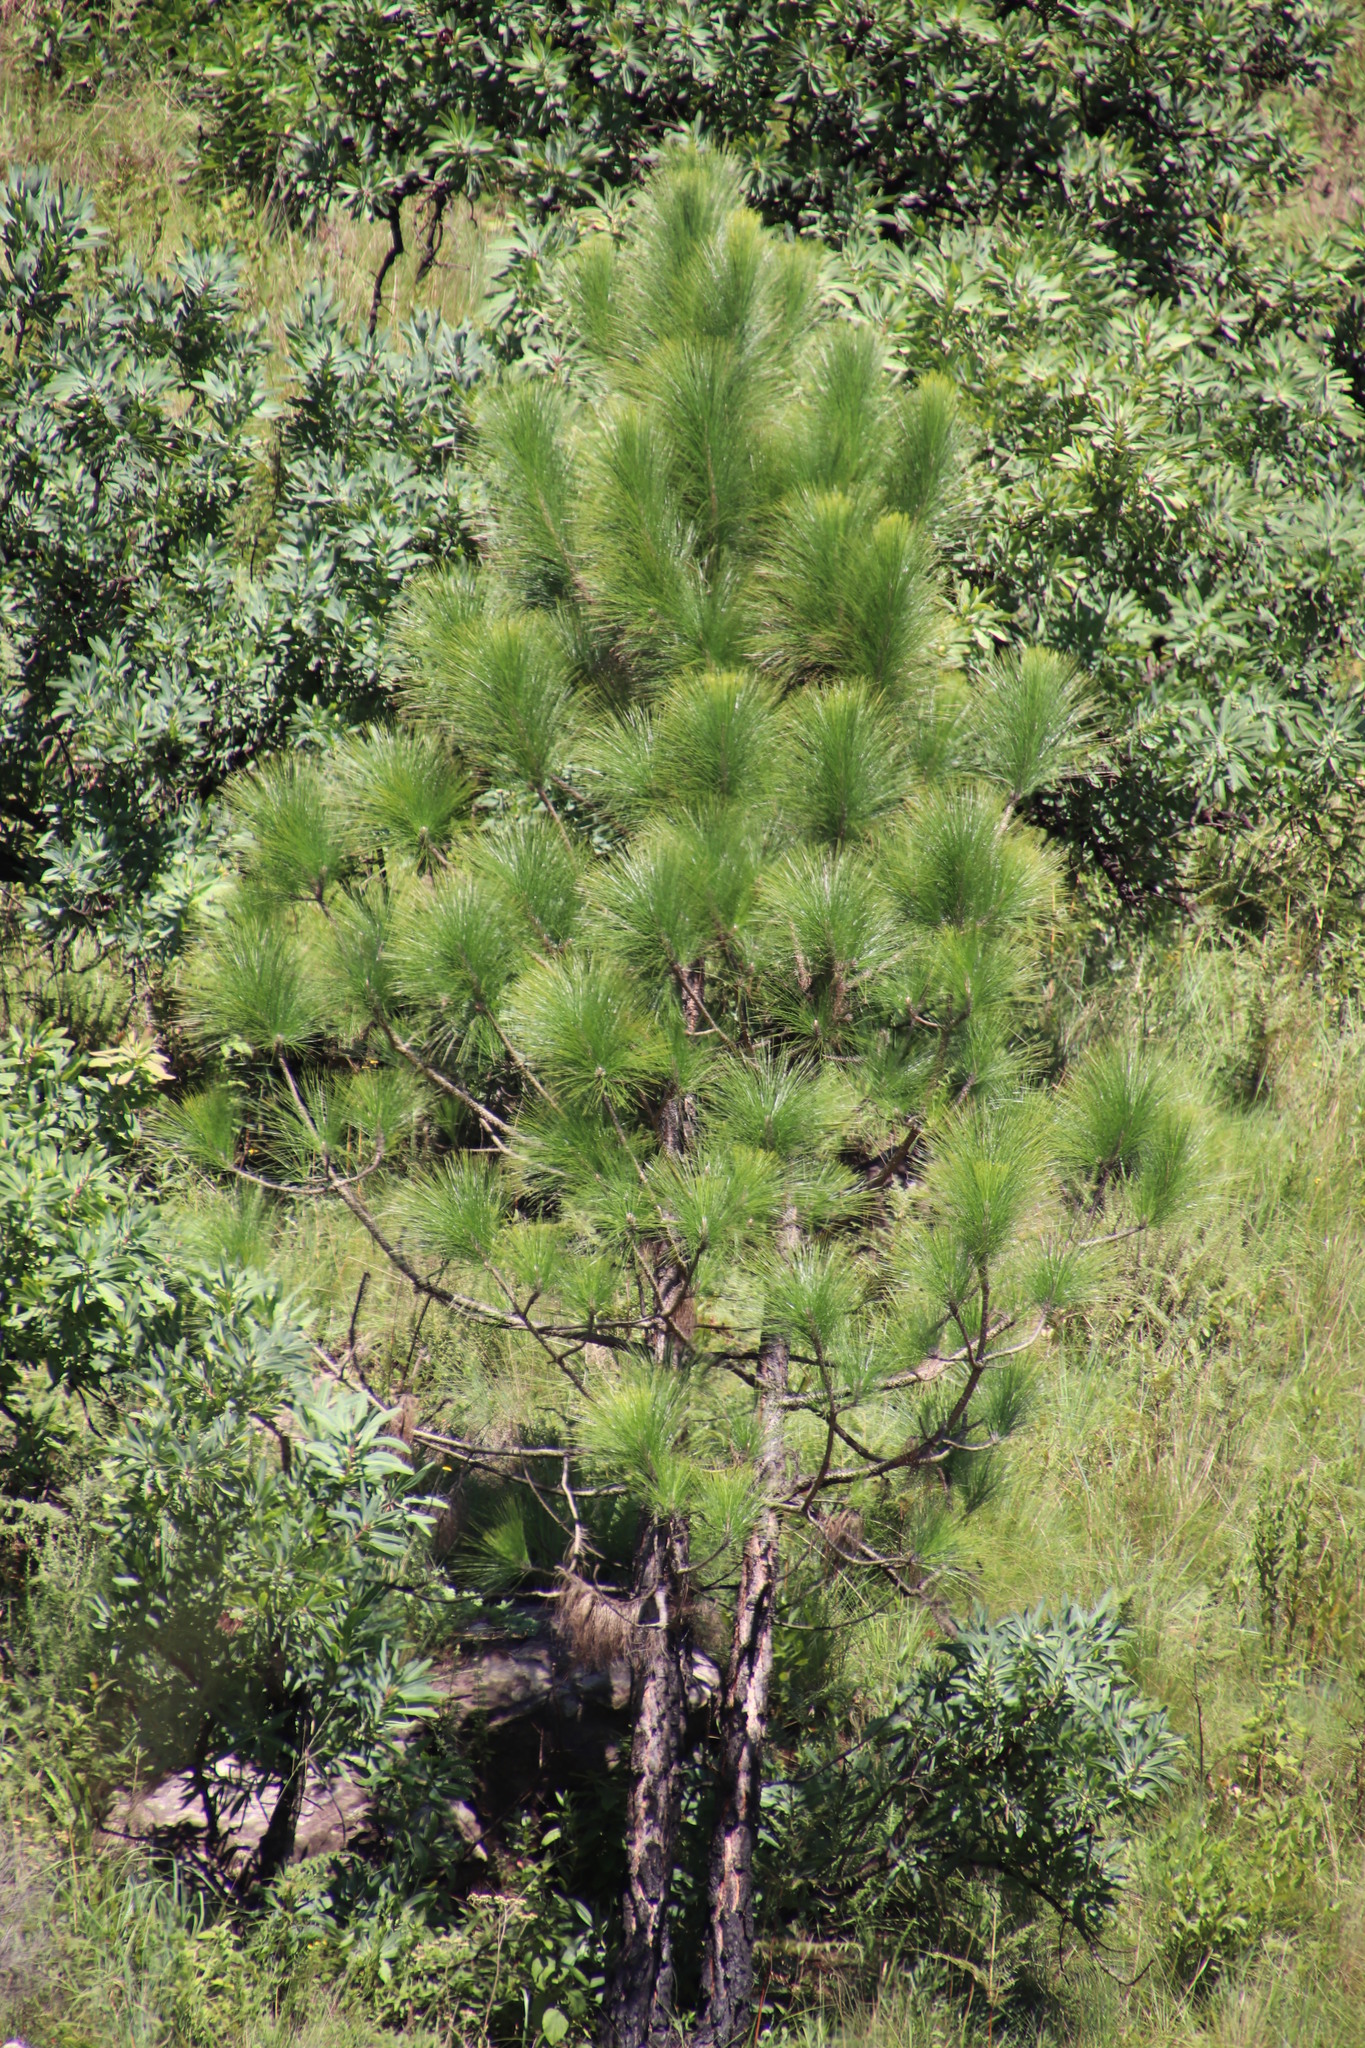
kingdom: Plantae
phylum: Tracheophyta
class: Pinopsida
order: Pinales
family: Pinaceae
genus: Pinus
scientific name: Pinus elliottii
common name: Slash pine
